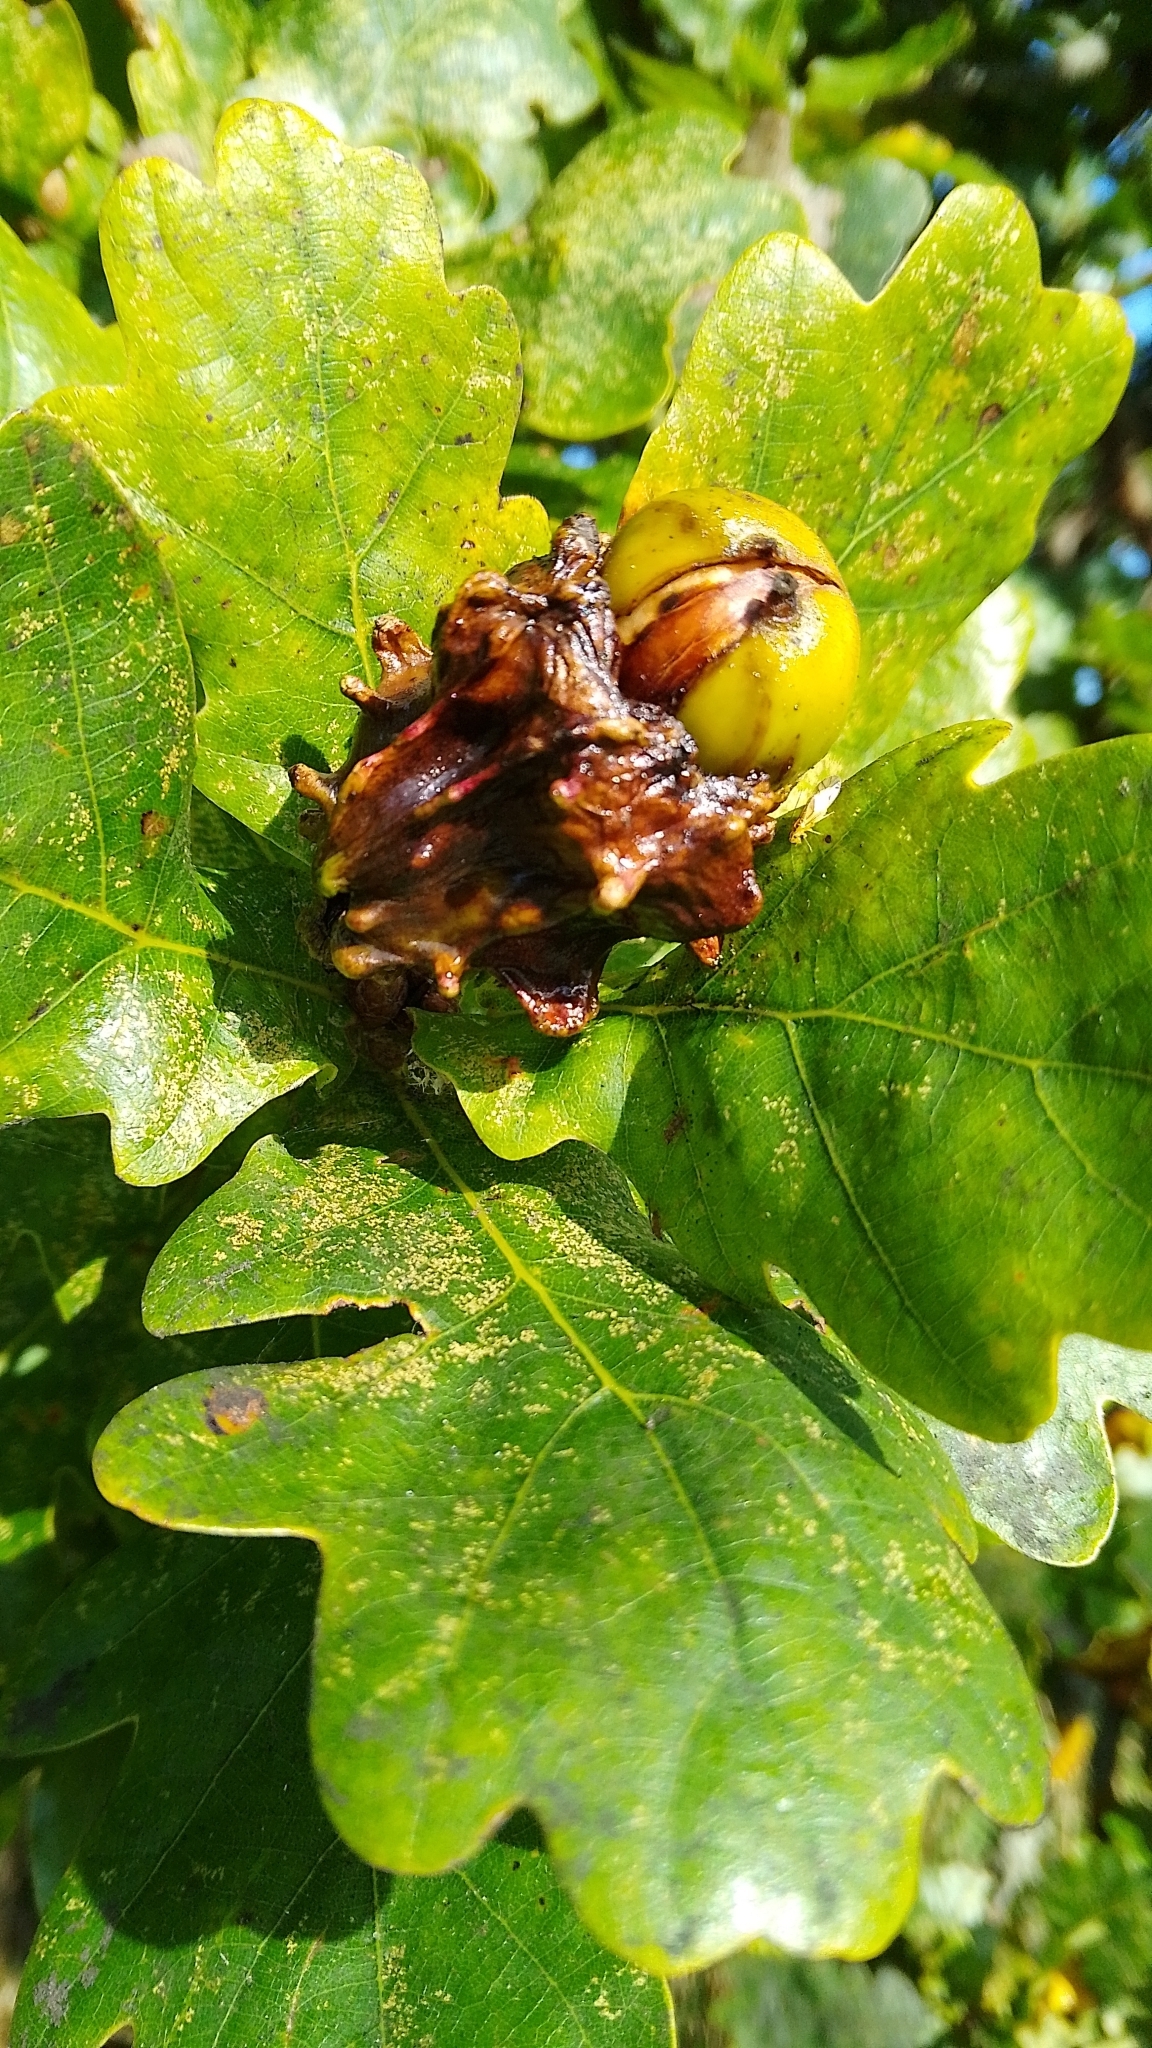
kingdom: Animalia
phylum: Arthropoda
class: Insecta
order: Hymenoptera
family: Cynipidae
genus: Andricus
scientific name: Andricus quercuscalicis
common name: Knopper gall
